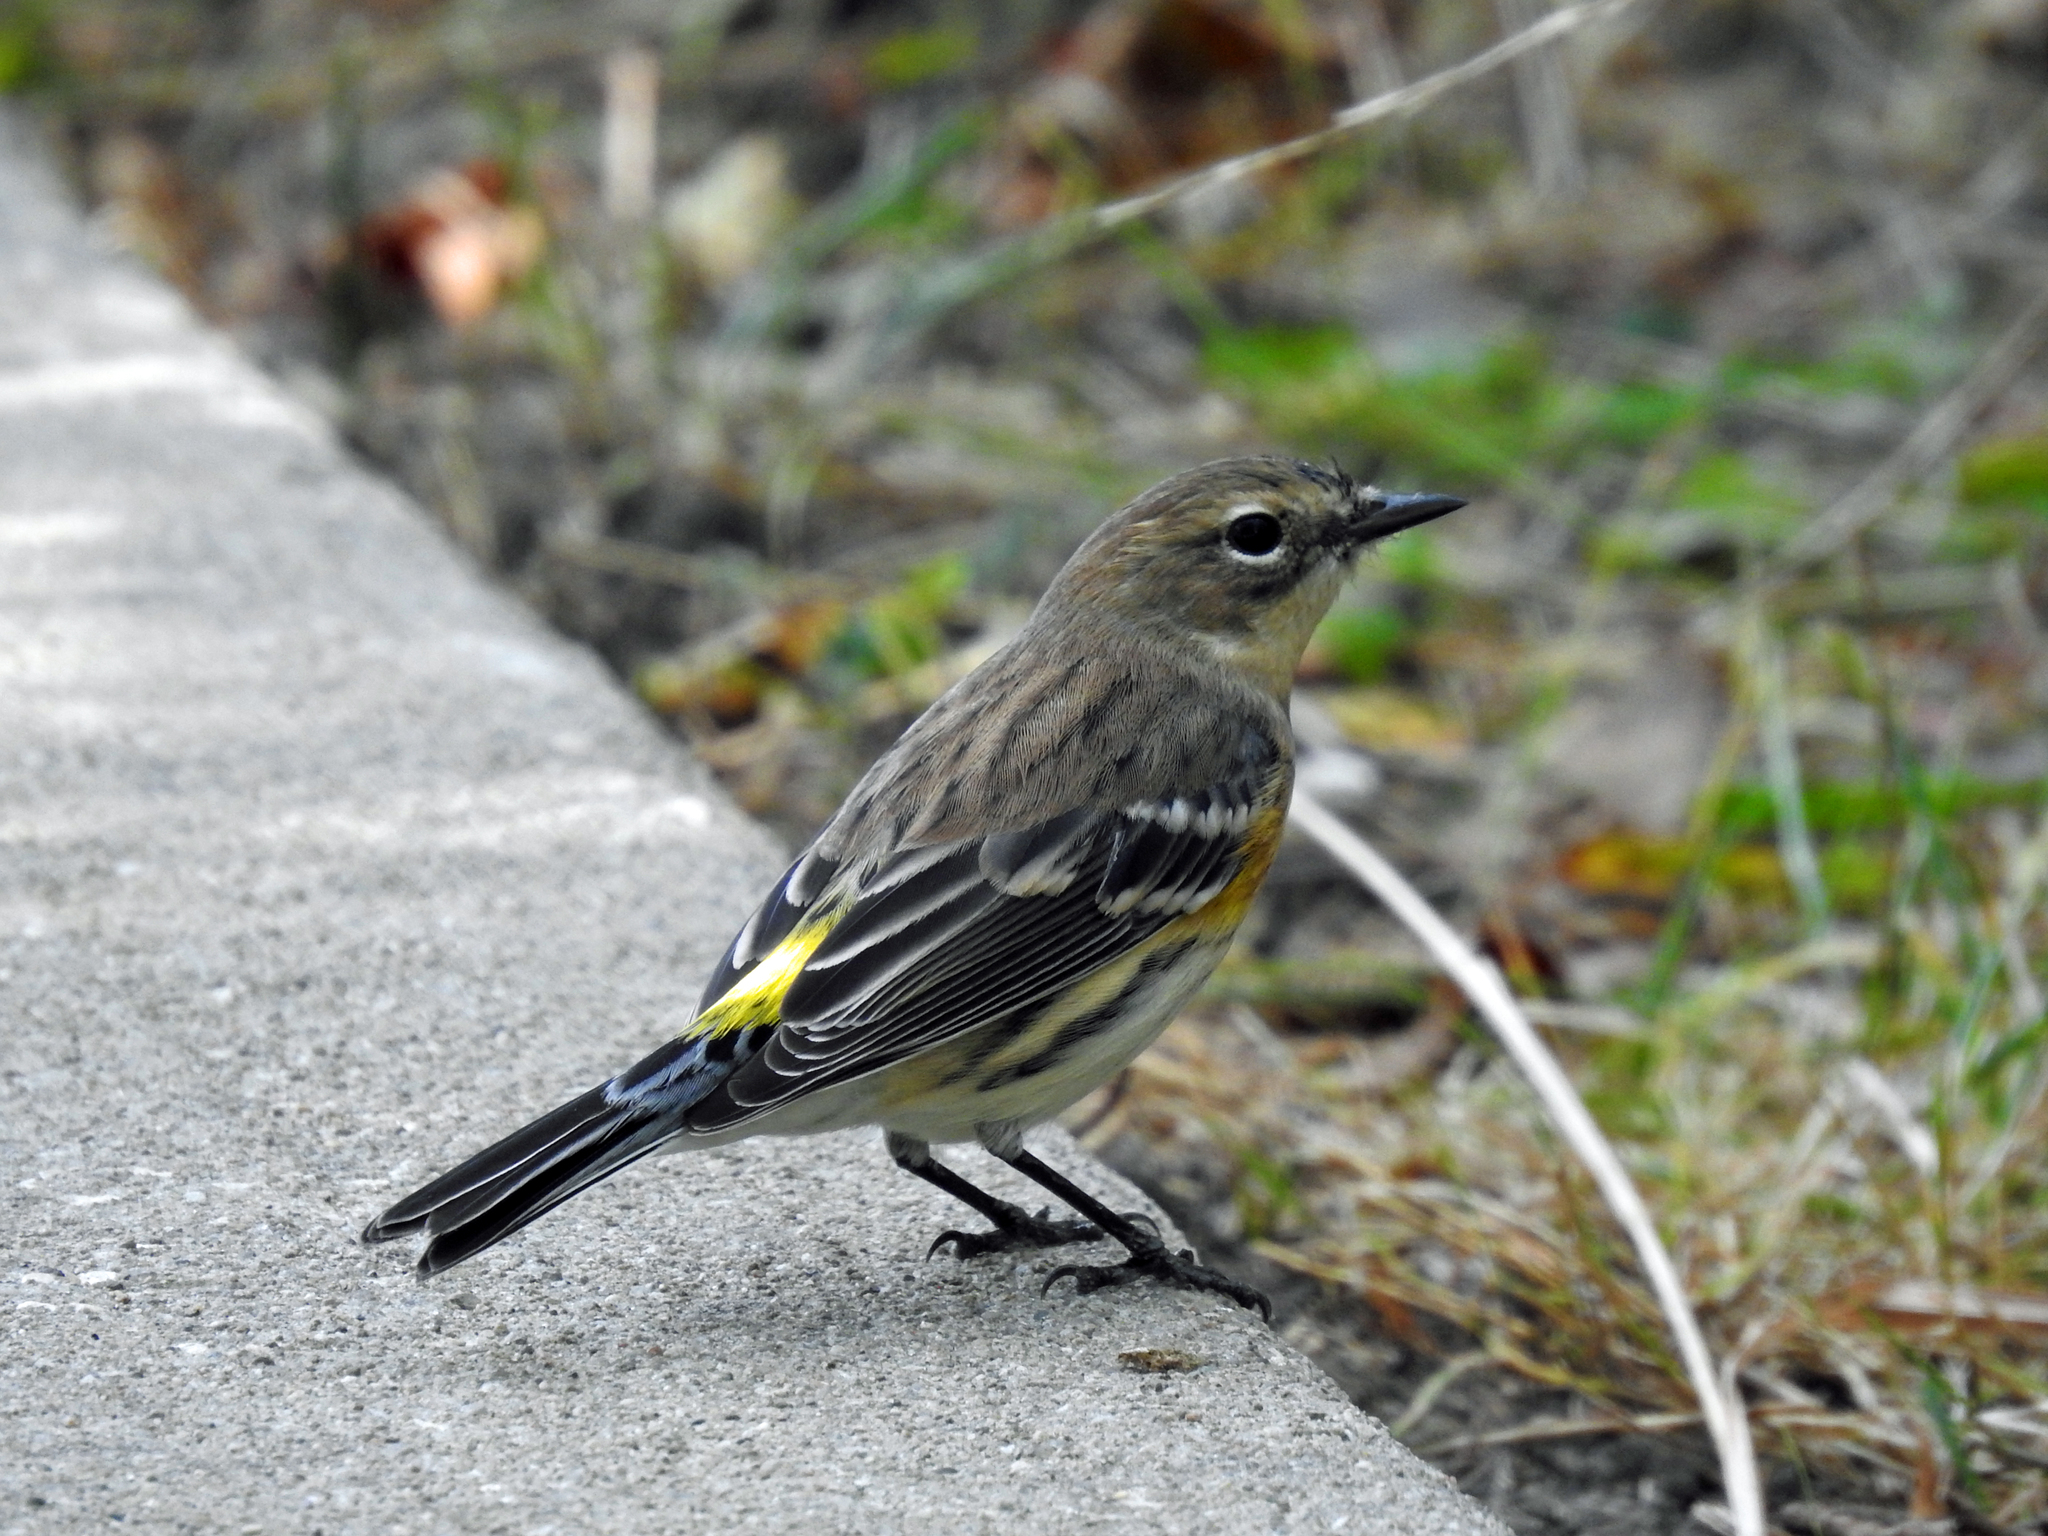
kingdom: Animalia
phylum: Chordata
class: Aves
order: Passeriformes
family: Parulidae
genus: Setophaga
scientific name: Setophaga coronata
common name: Myrtle warbler
